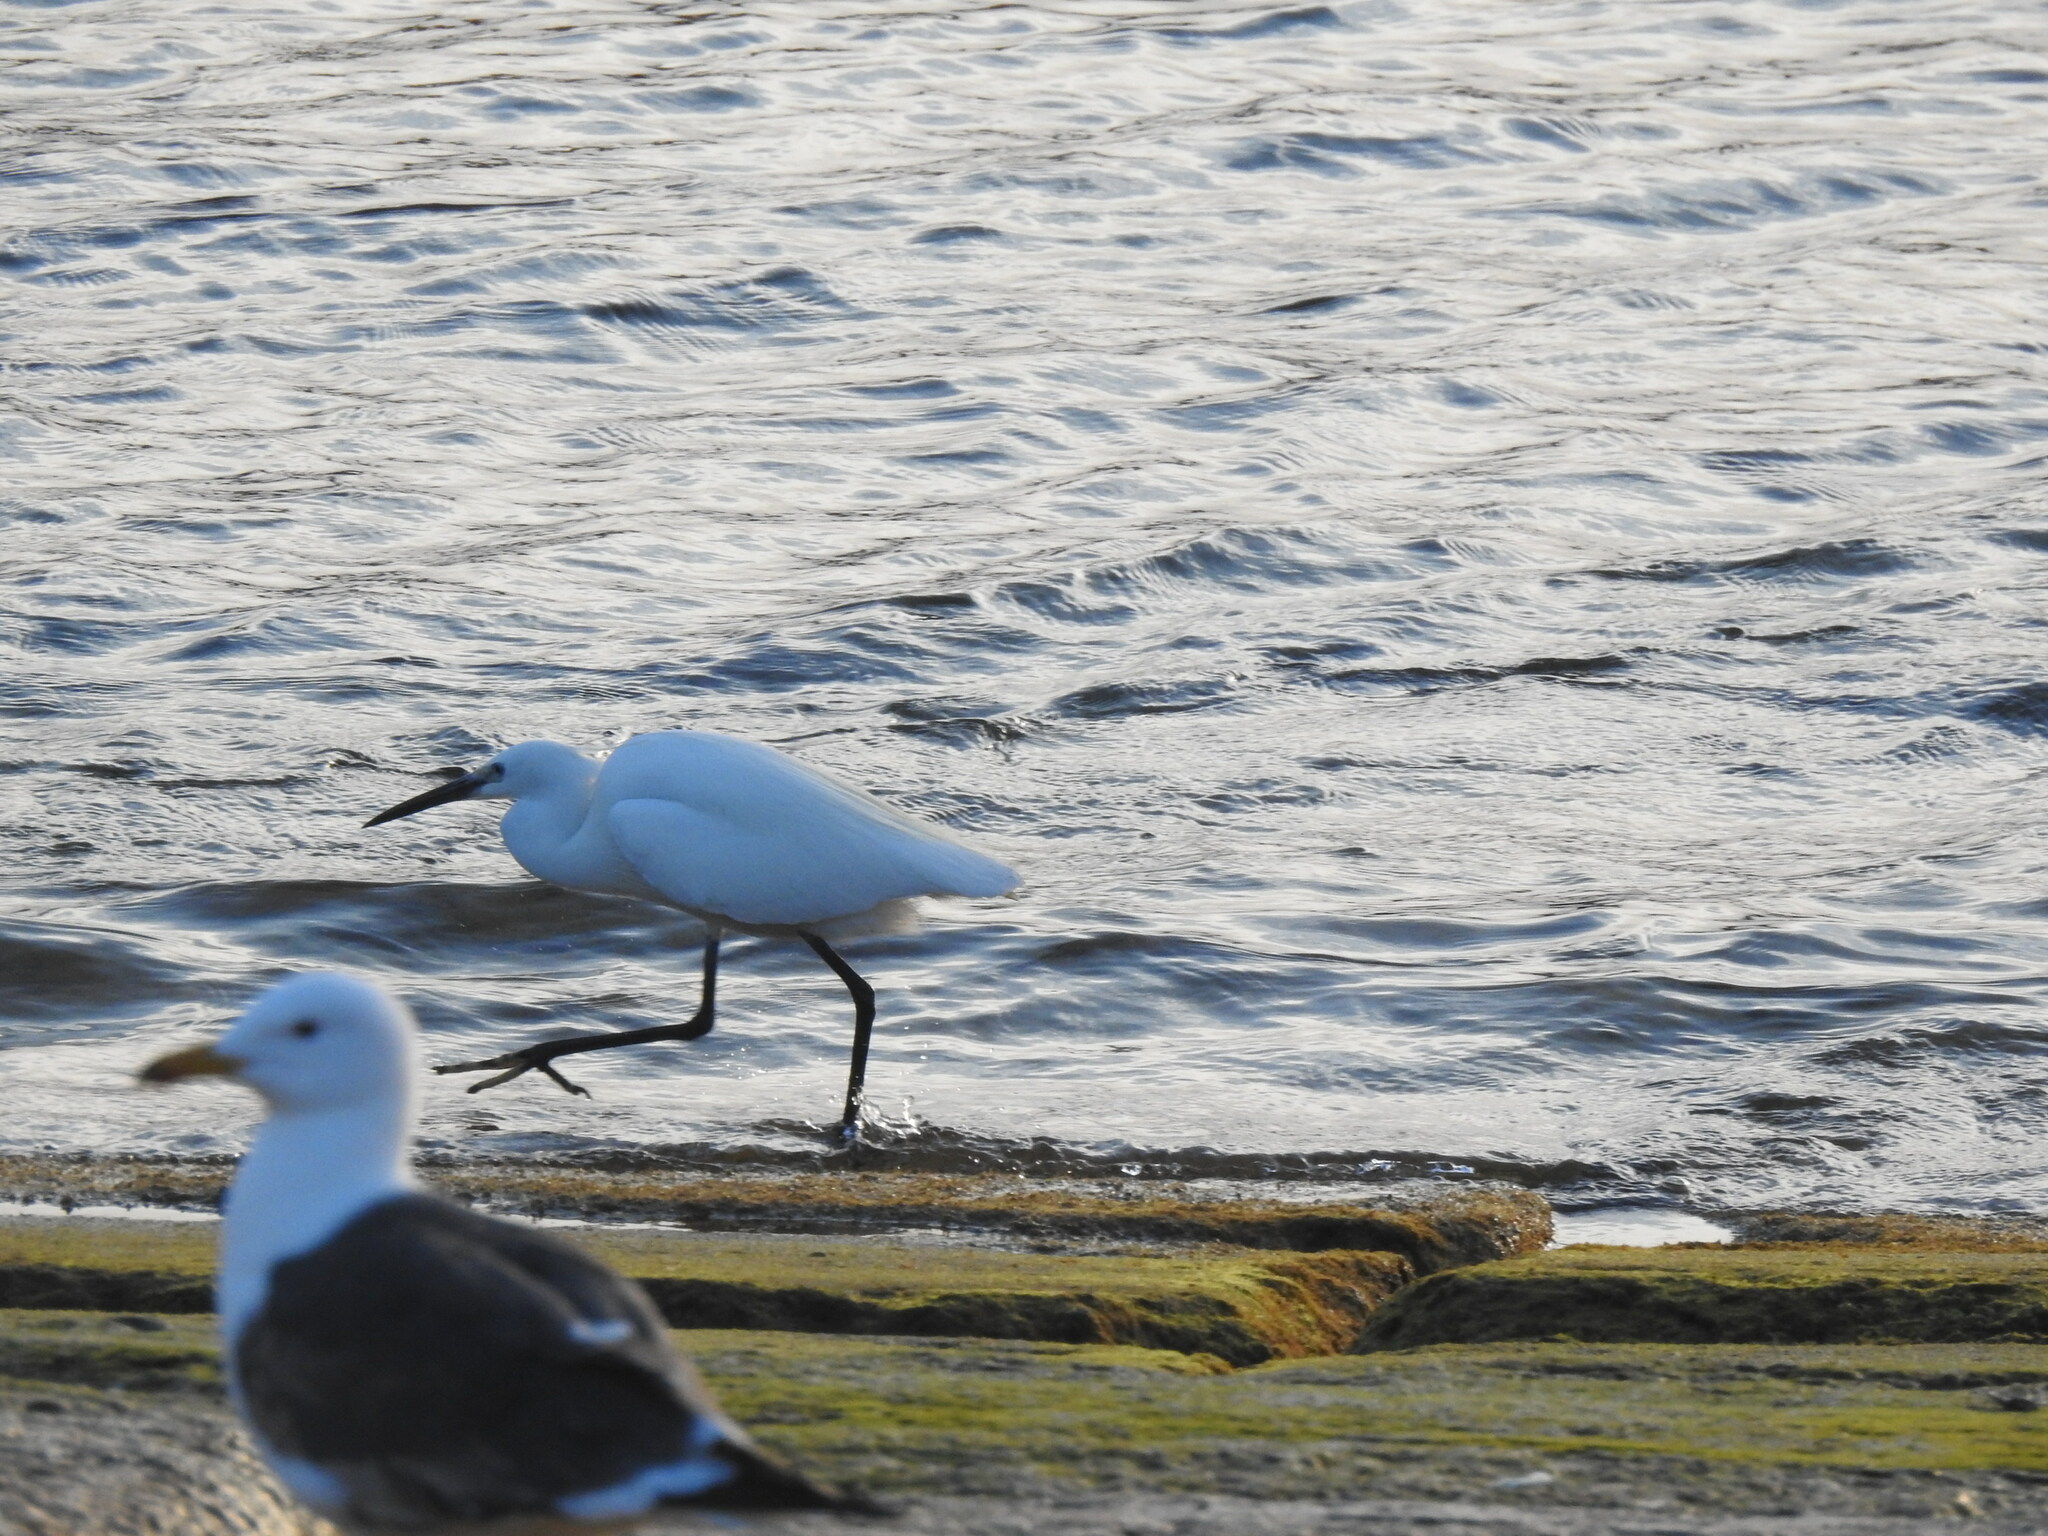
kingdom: Animalia
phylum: Chordata
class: Aves
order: Pelecaniformes
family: Ardeidae
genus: Egretta
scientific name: Egretta garzetta
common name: Little egret
